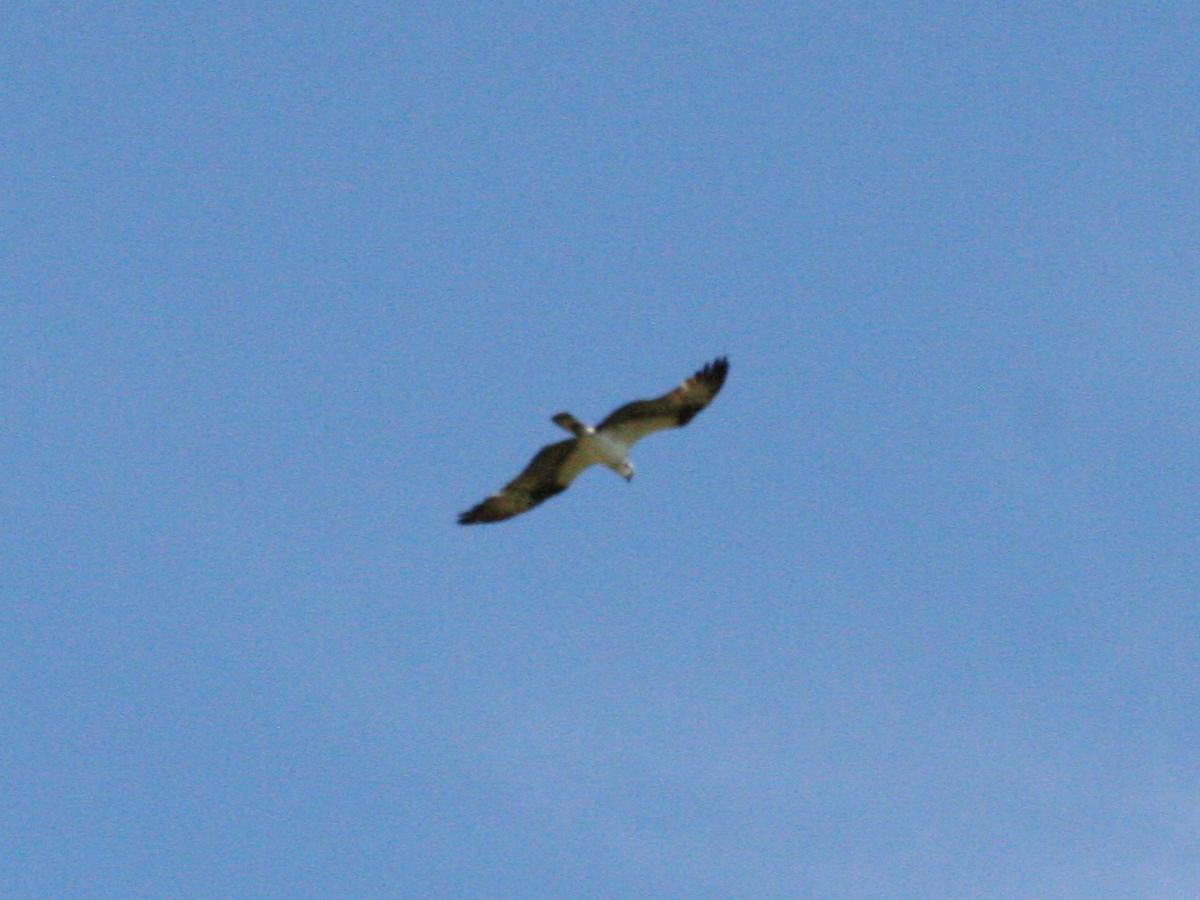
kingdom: Animalia
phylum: Chordata
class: Aves
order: Accipitriformes
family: Pandionidae
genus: Pandion
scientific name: Pandion haliaetus
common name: Osprey
